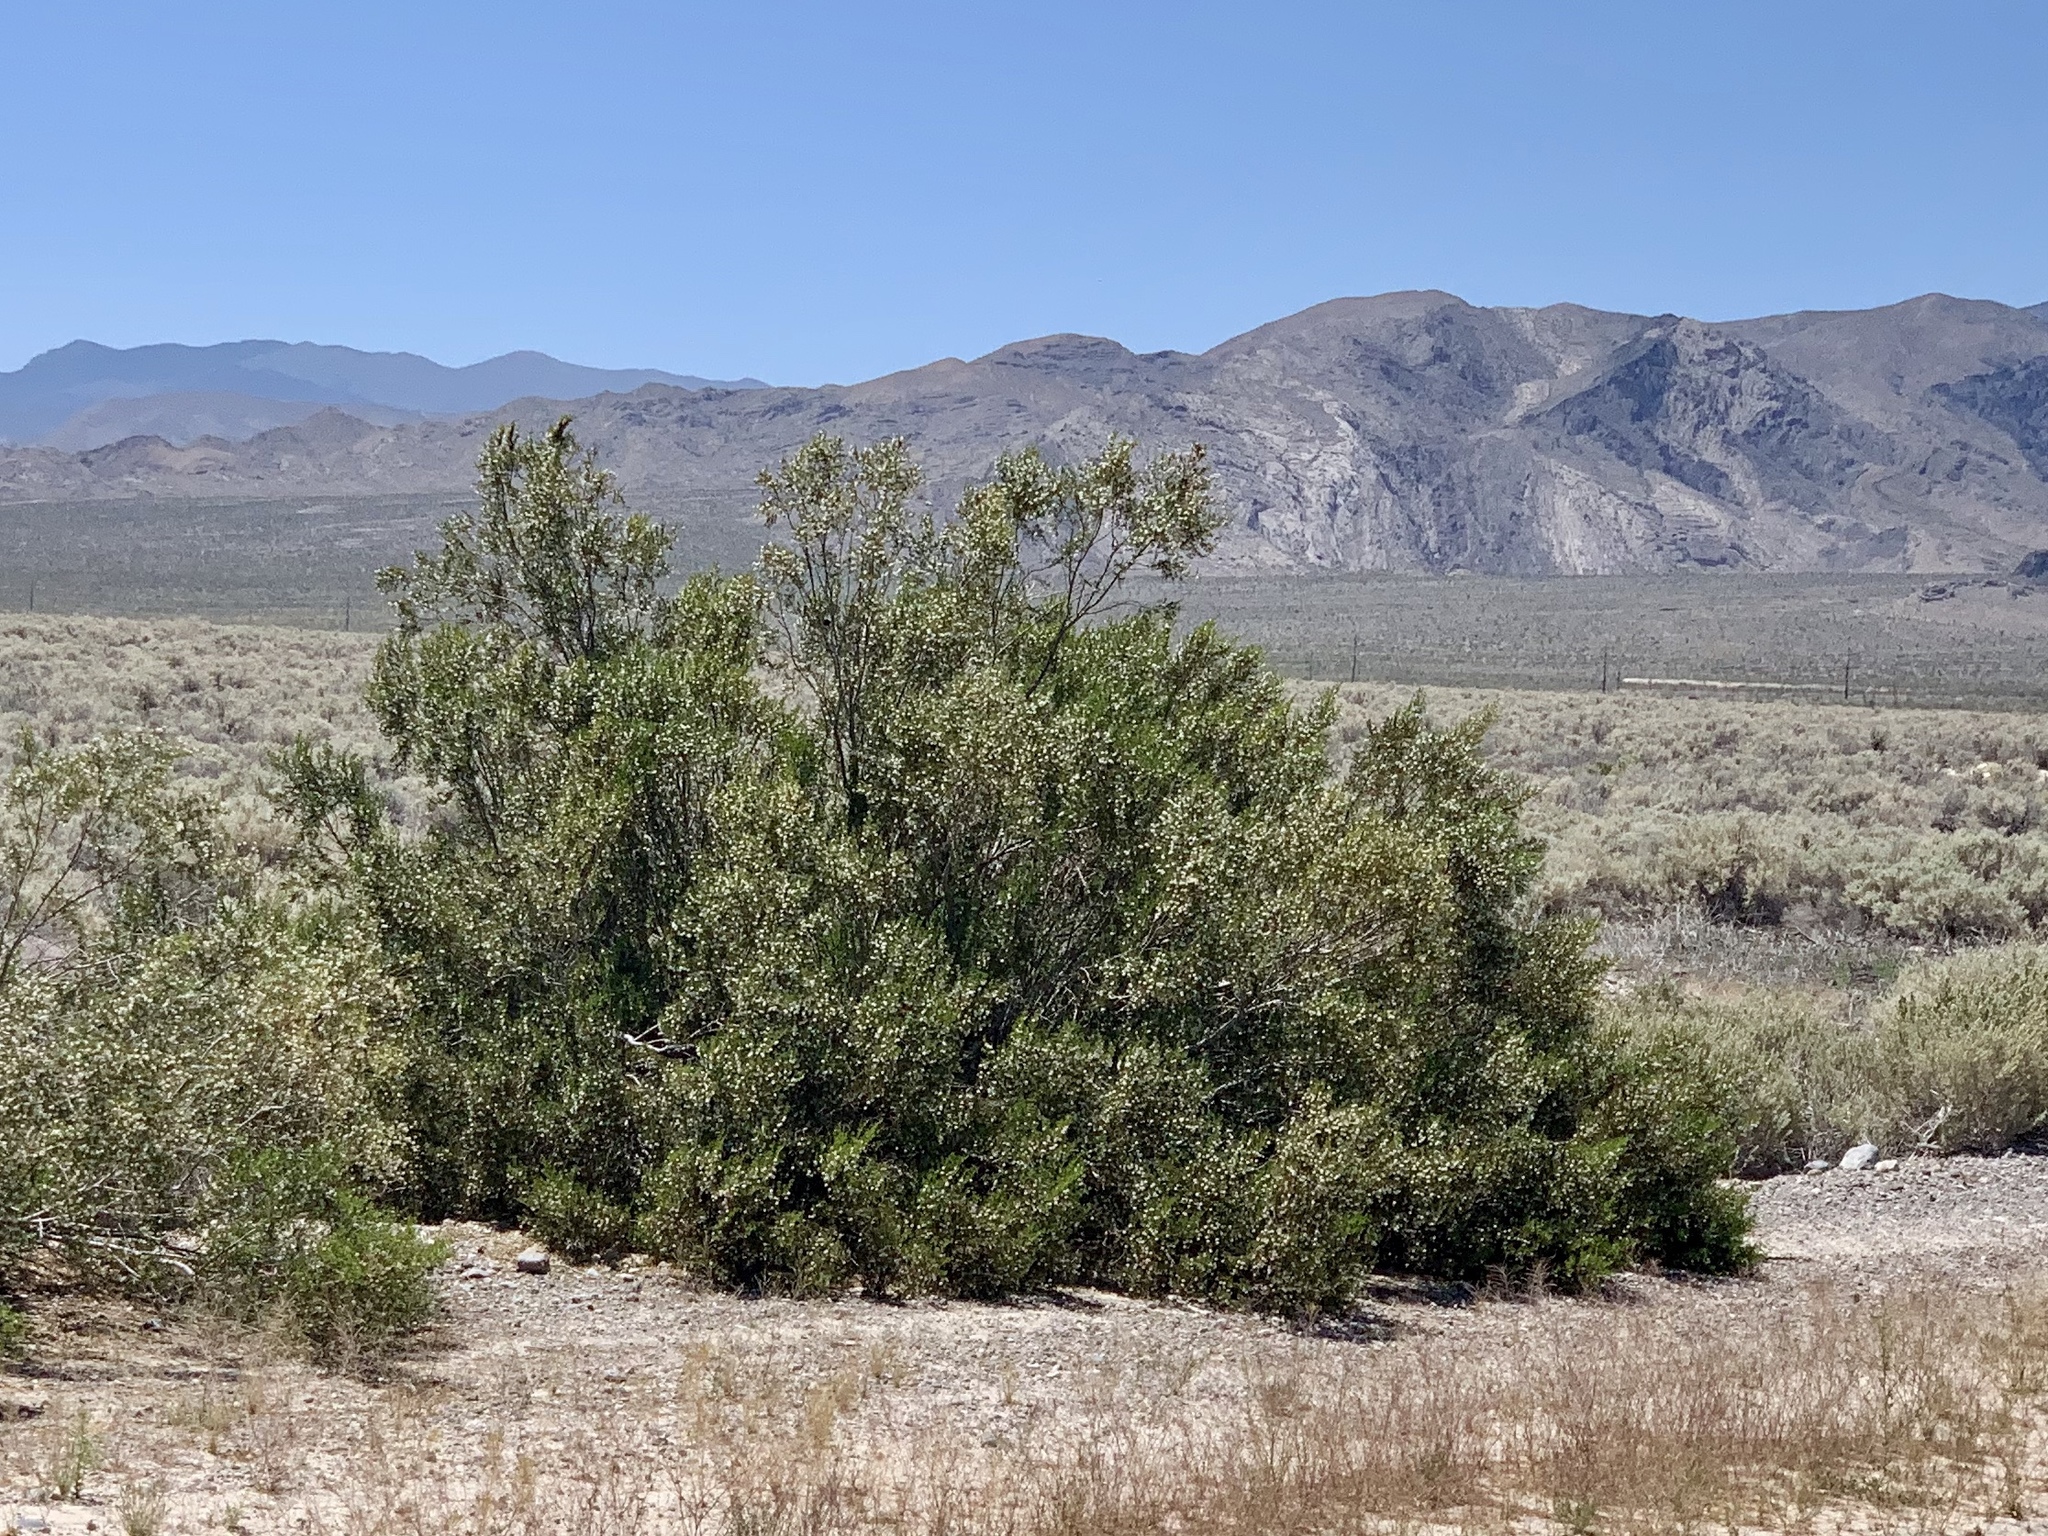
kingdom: Plantae
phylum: Tracheophyta
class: Magnoliopsida
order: Zygophyllales
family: Zygophyllaceae
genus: Larrea
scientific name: Larrea tridentata
